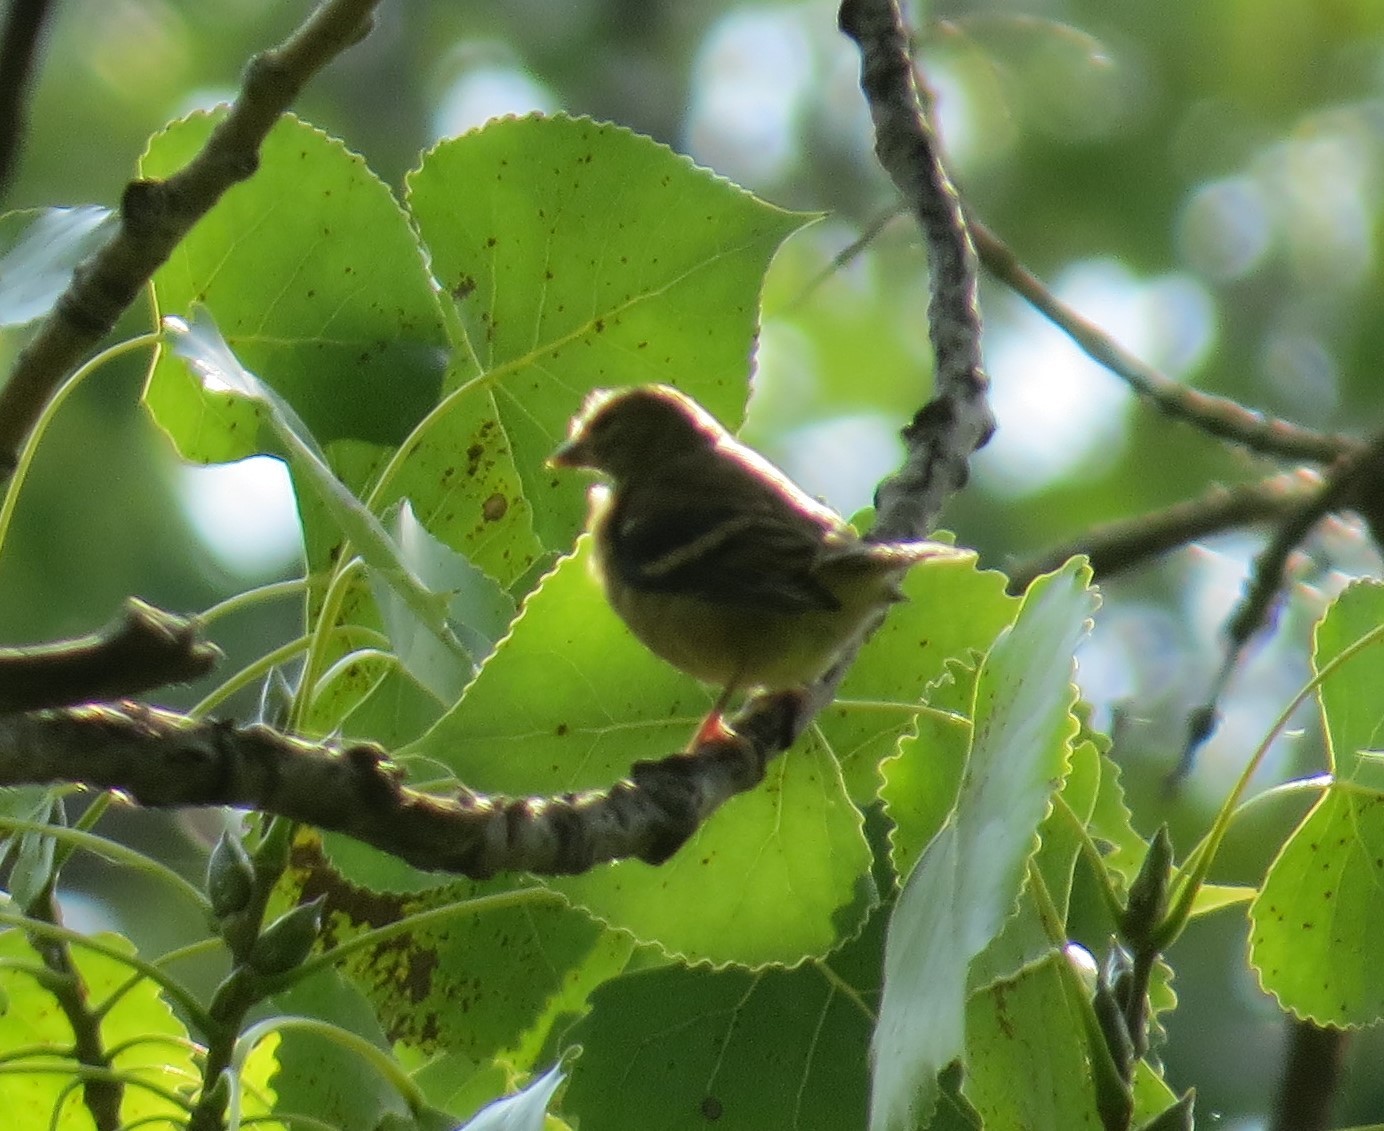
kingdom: Animalia
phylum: Chordata
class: Aves
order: Passeriformes
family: Fringillidae
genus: Spinus
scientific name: Spinus tristis
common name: American goldfinch
